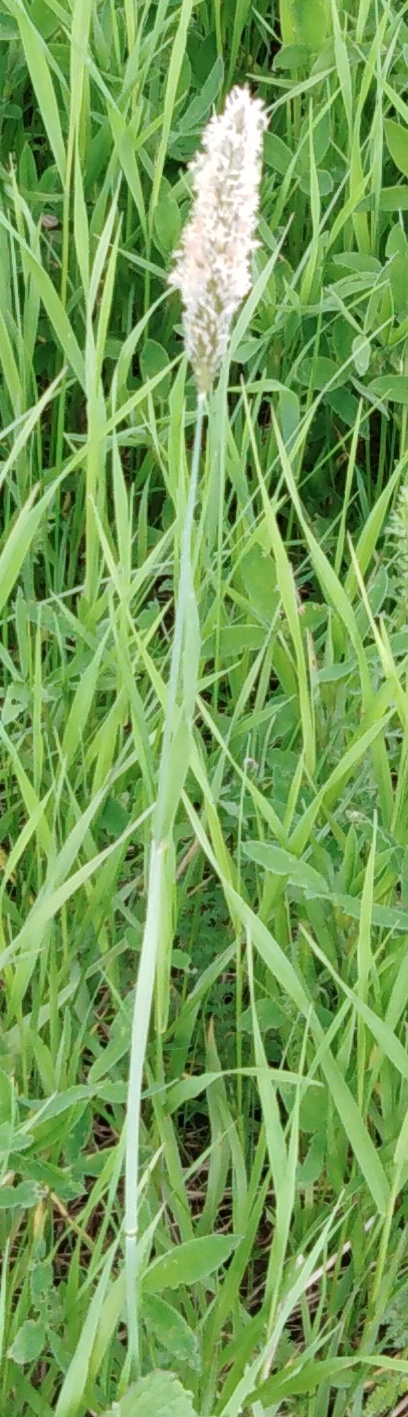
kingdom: Plantae
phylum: Tracheophyta
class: Liliopsida
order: Poales
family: Poaceae
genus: Alopecurus
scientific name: Alopecurus pratensis
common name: Meadow foxtail
